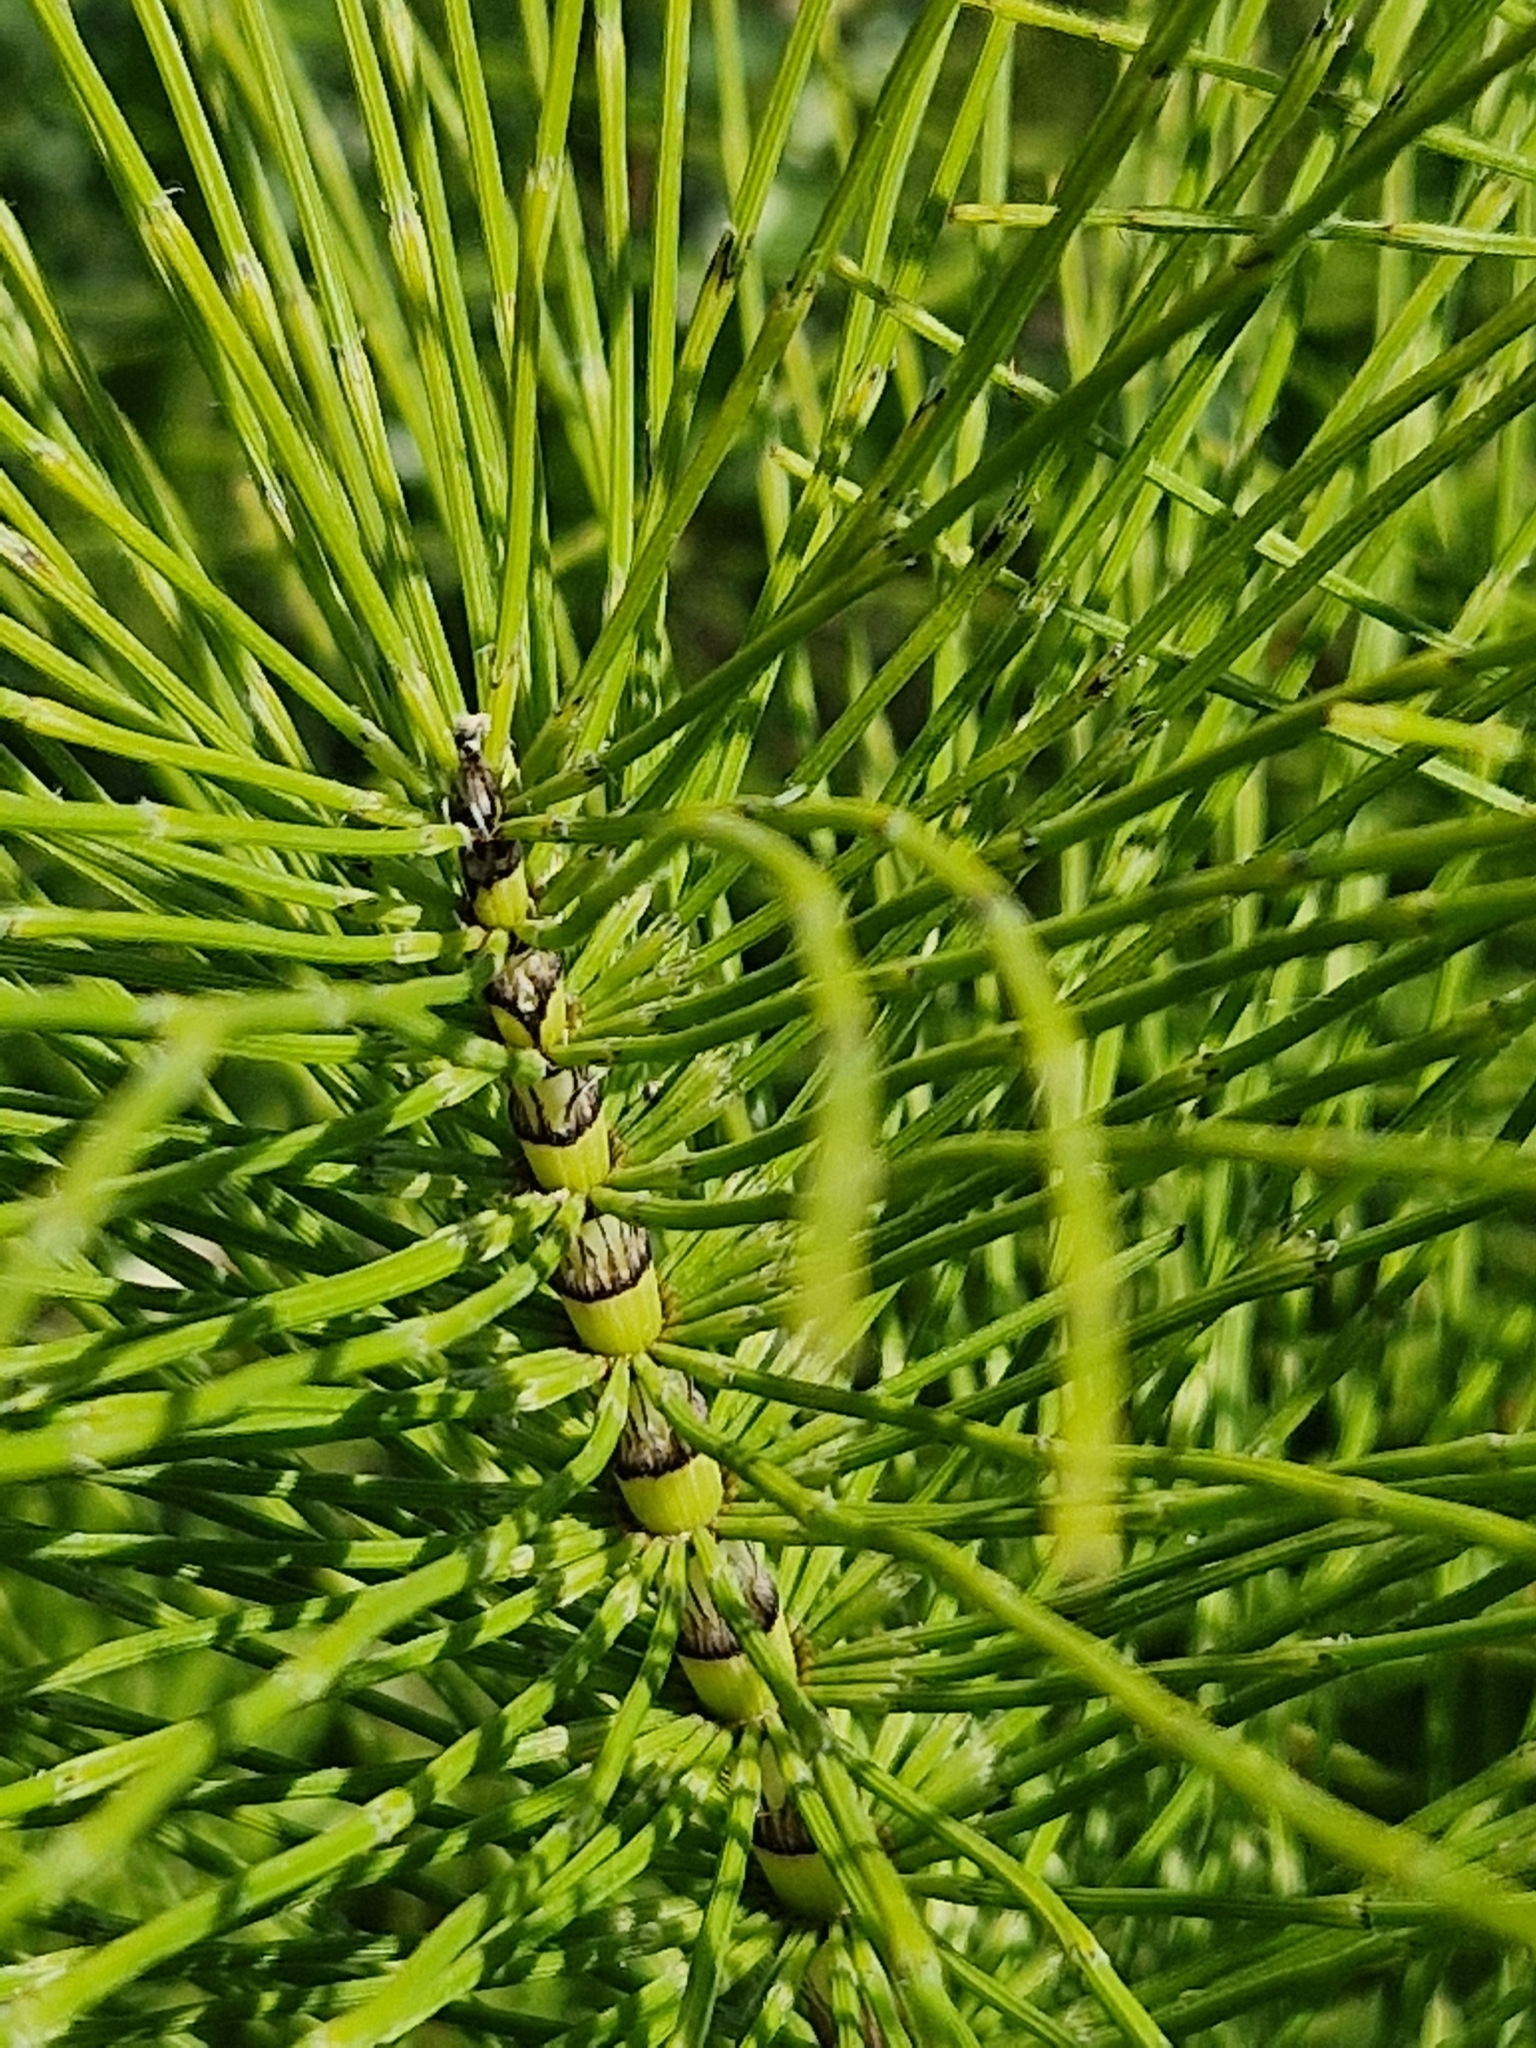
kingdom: Plantae
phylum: Tracheophyta
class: Polypodiopsida
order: Equisetales
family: Equisetaceae
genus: Equisetum
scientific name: Equisetum telmateia
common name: Great horsetail
